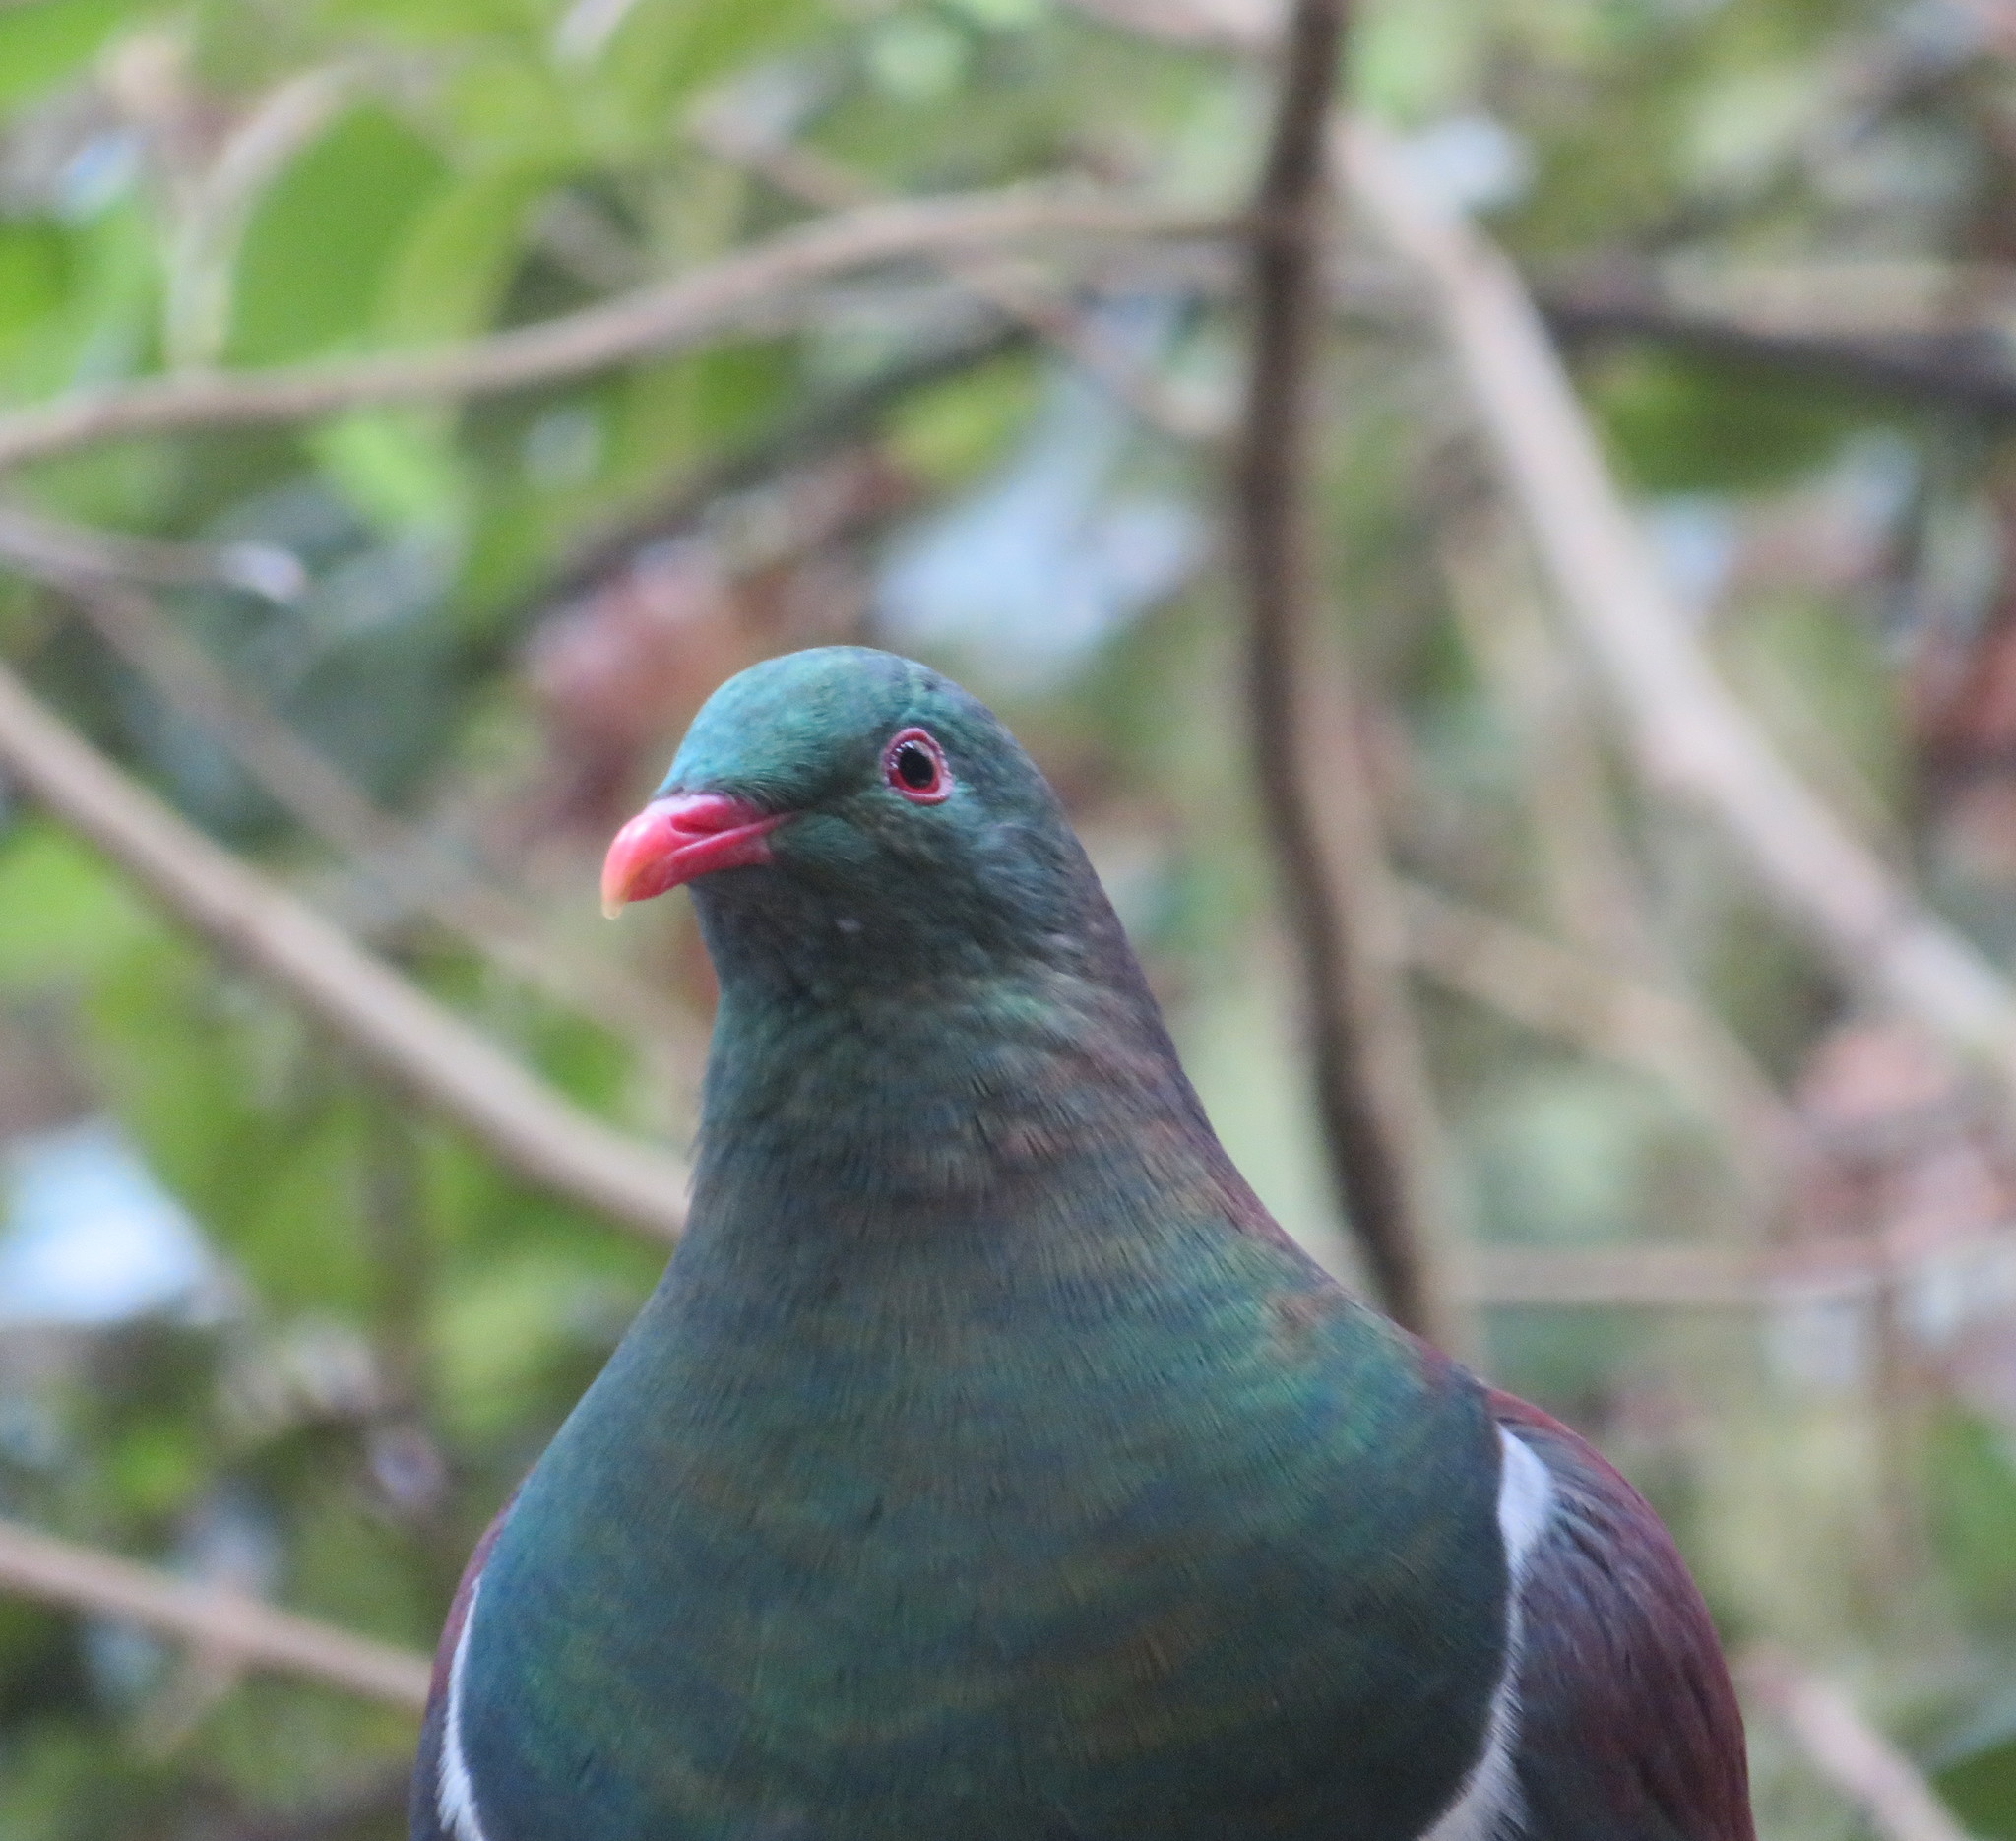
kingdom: Animalia
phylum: Chordata
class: Aves
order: Columbiformes
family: Columbidae
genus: Hemiphaga
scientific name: Hemiphaga novaeseelandiae
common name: New zealand pigeon
